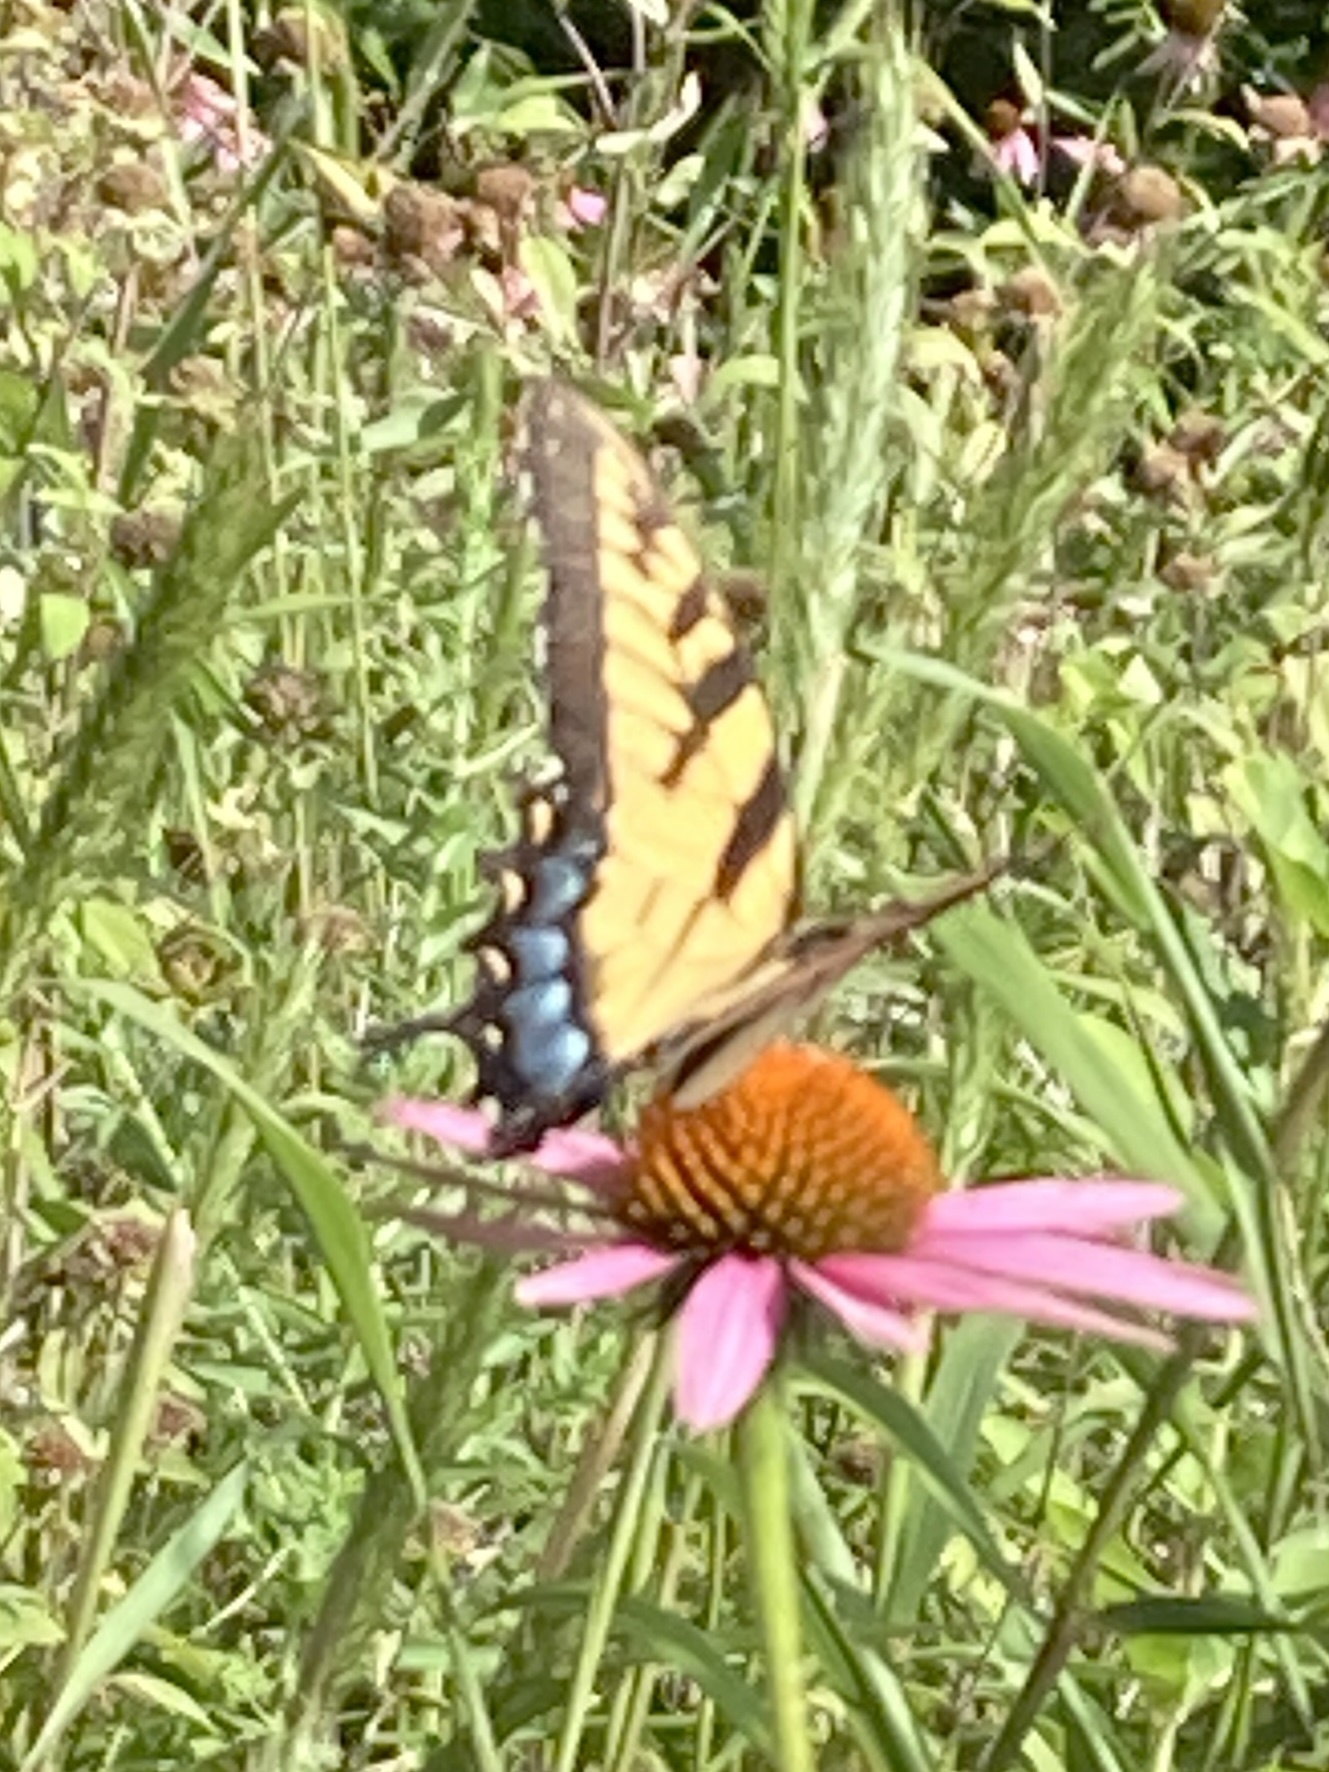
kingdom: Animalia
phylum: Arthropoda
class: Insecta
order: Lepidoptera
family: Papilionidae
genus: Papilio
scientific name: Papilio glaucus
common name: Tiger swallowtail
